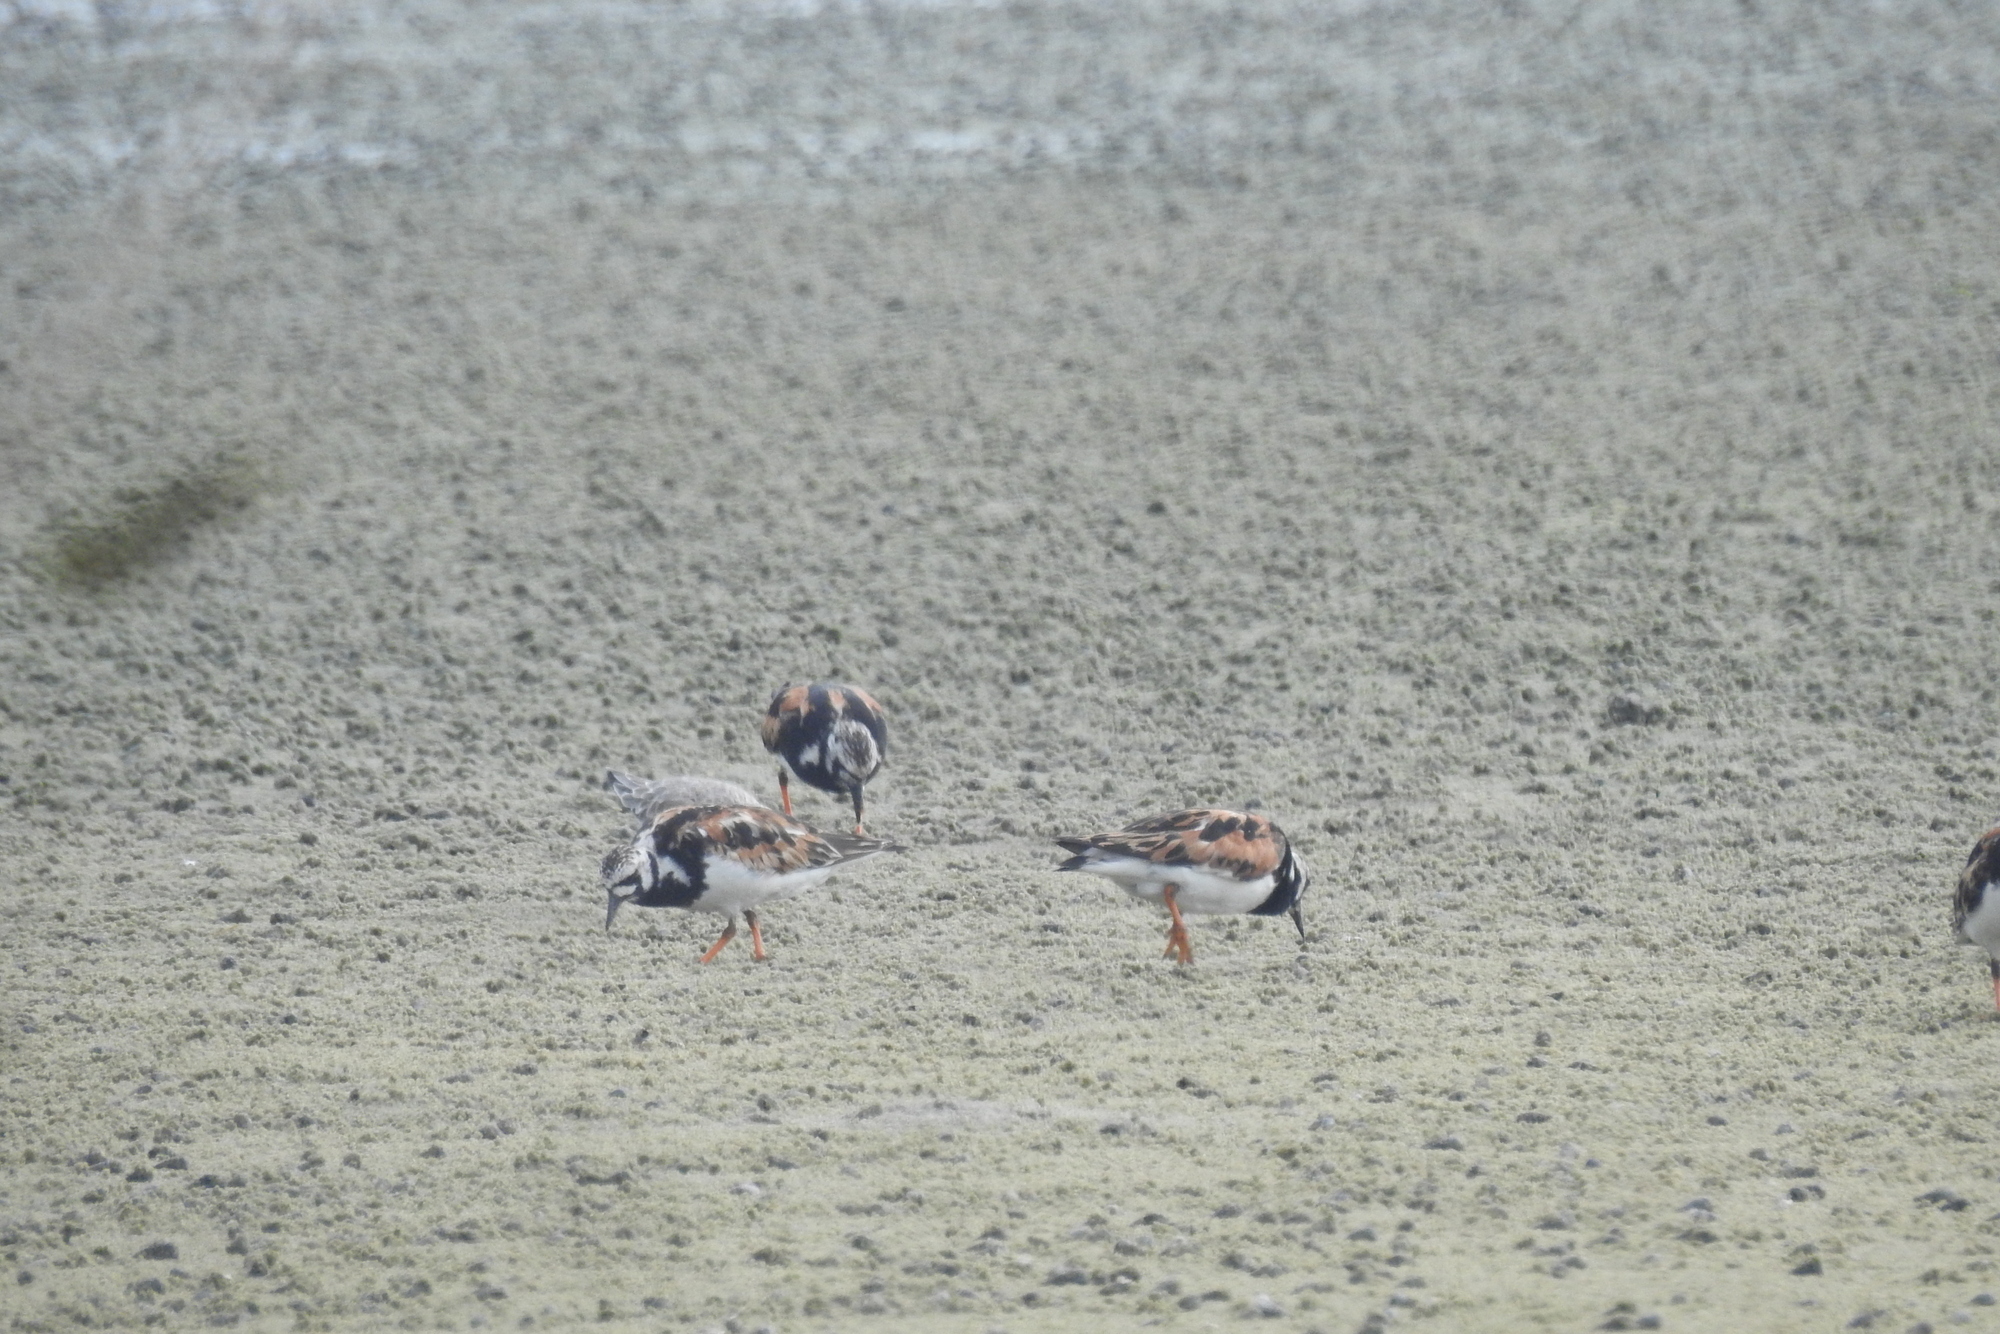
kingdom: Animalia
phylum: Chordata
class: Aves
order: Charadriiformes
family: Scolopacidae
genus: Arenaria
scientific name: Arenaria interpres
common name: Ruddy turnstone
